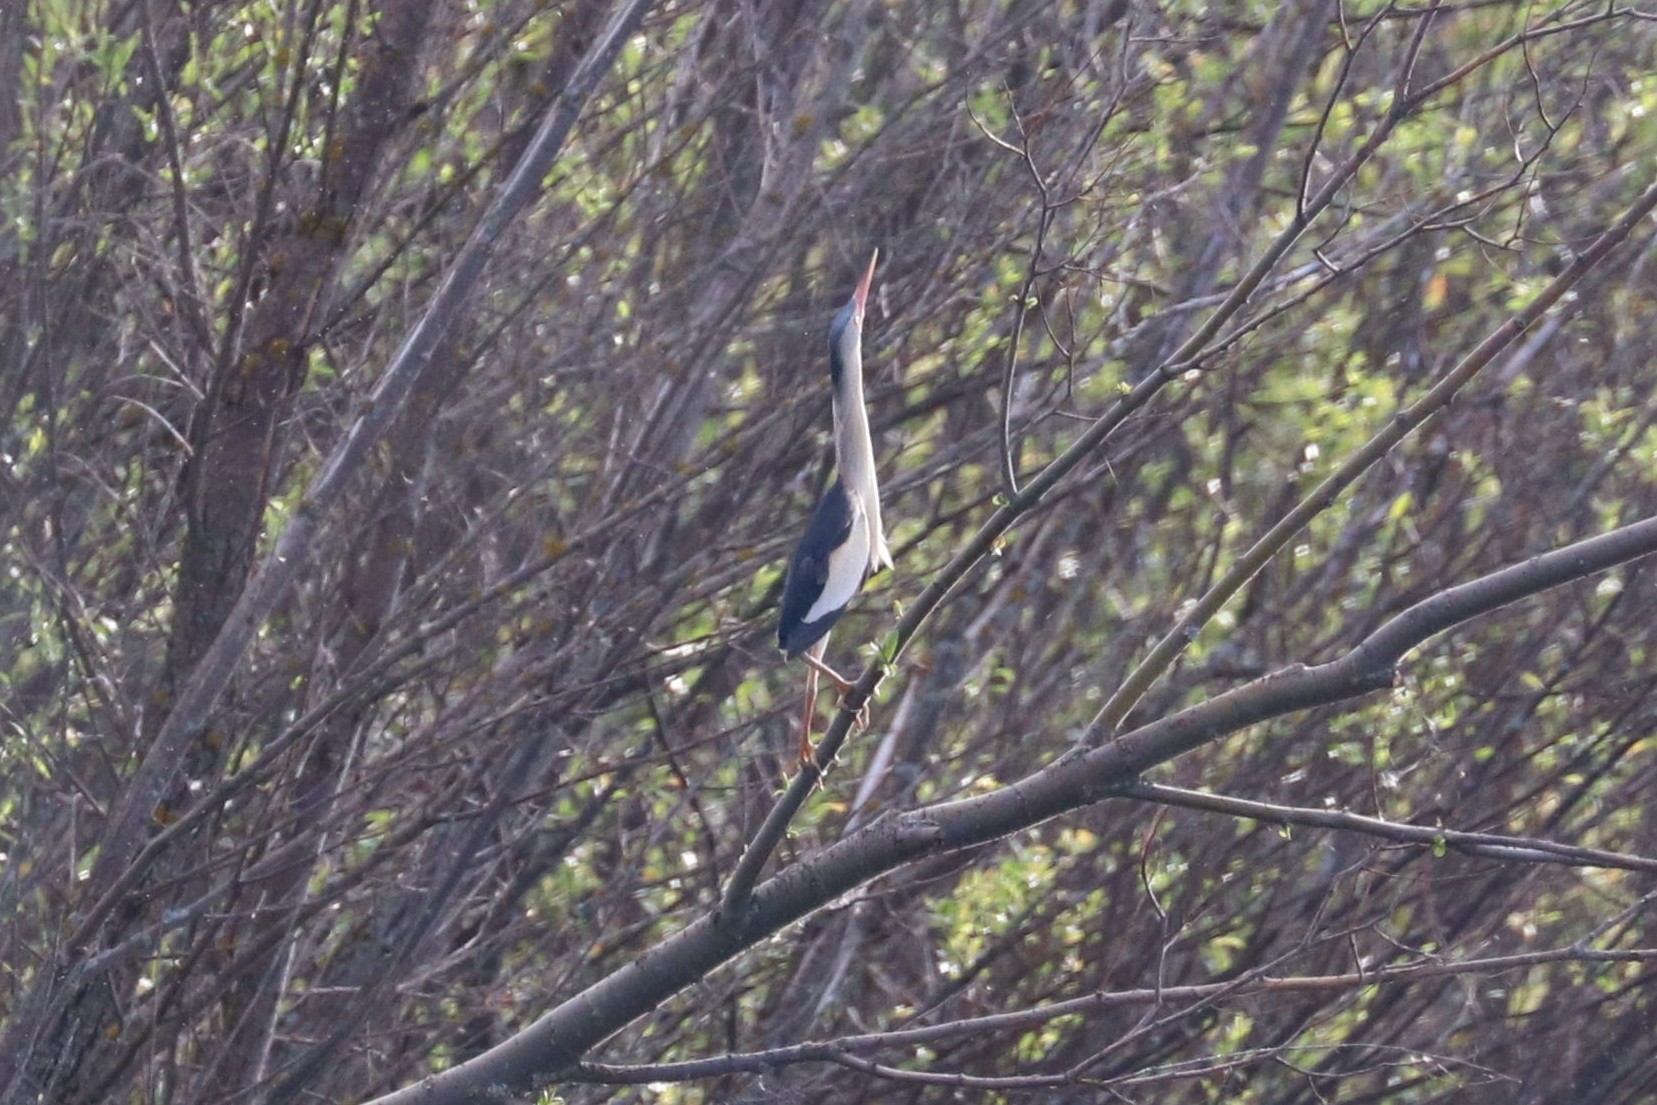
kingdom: Animalia
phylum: Chordata
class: Aves
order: Pelecaniformes
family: Ardeidae
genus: Ixobrychus
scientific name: Ixobrychus minutus
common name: Little bittern
